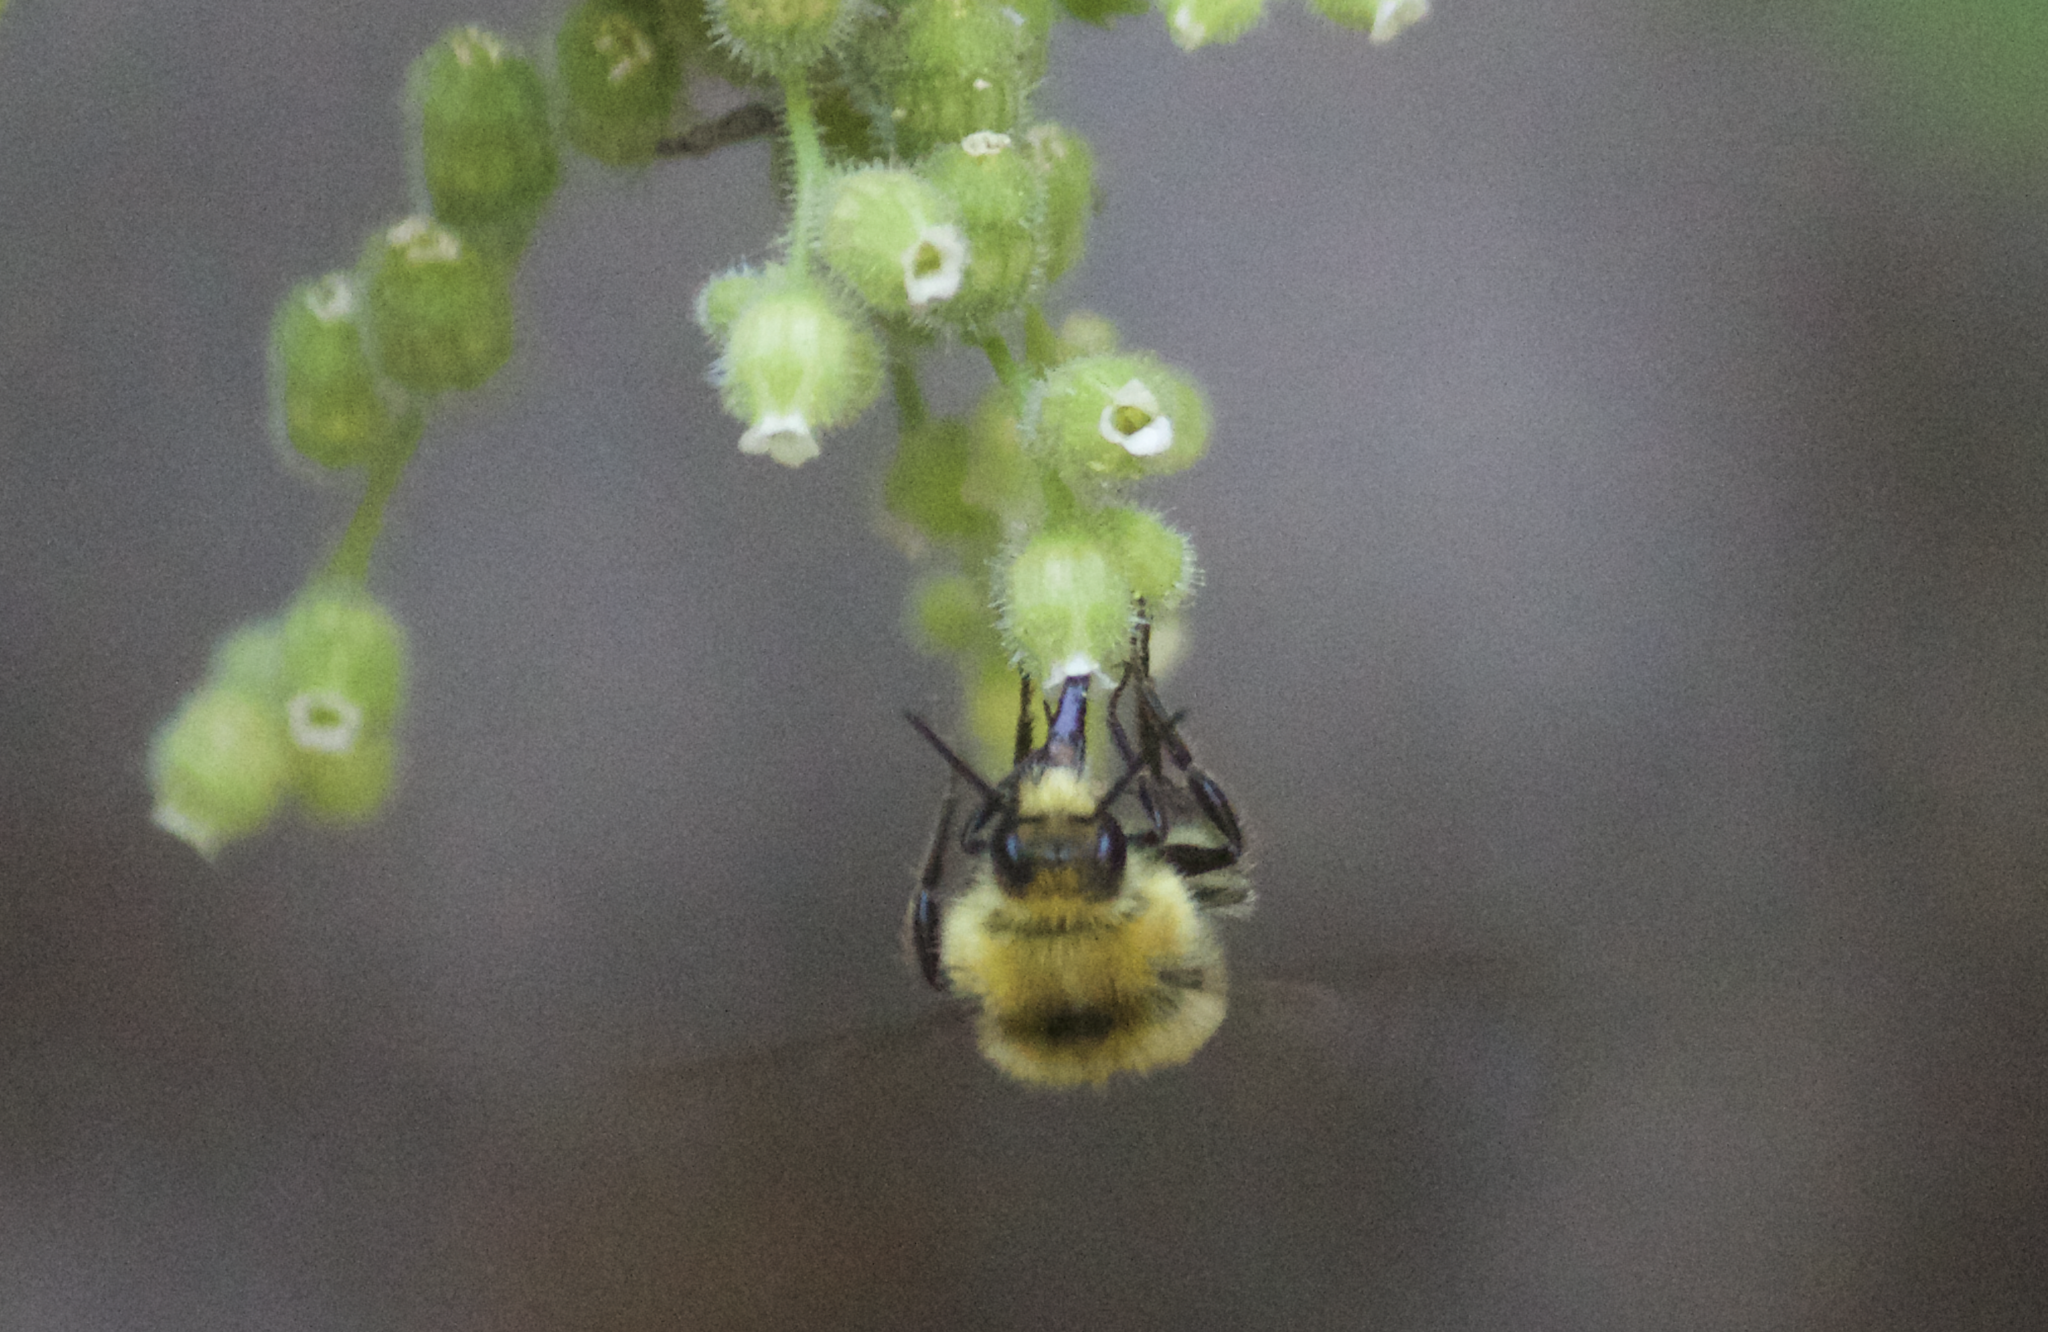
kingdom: Animalia
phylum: Arthropoda
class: Insecta
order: Hymenoptera
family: Apidae
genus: Bombus
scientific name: Bombus vandykei
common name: Van dyke bumble bee
